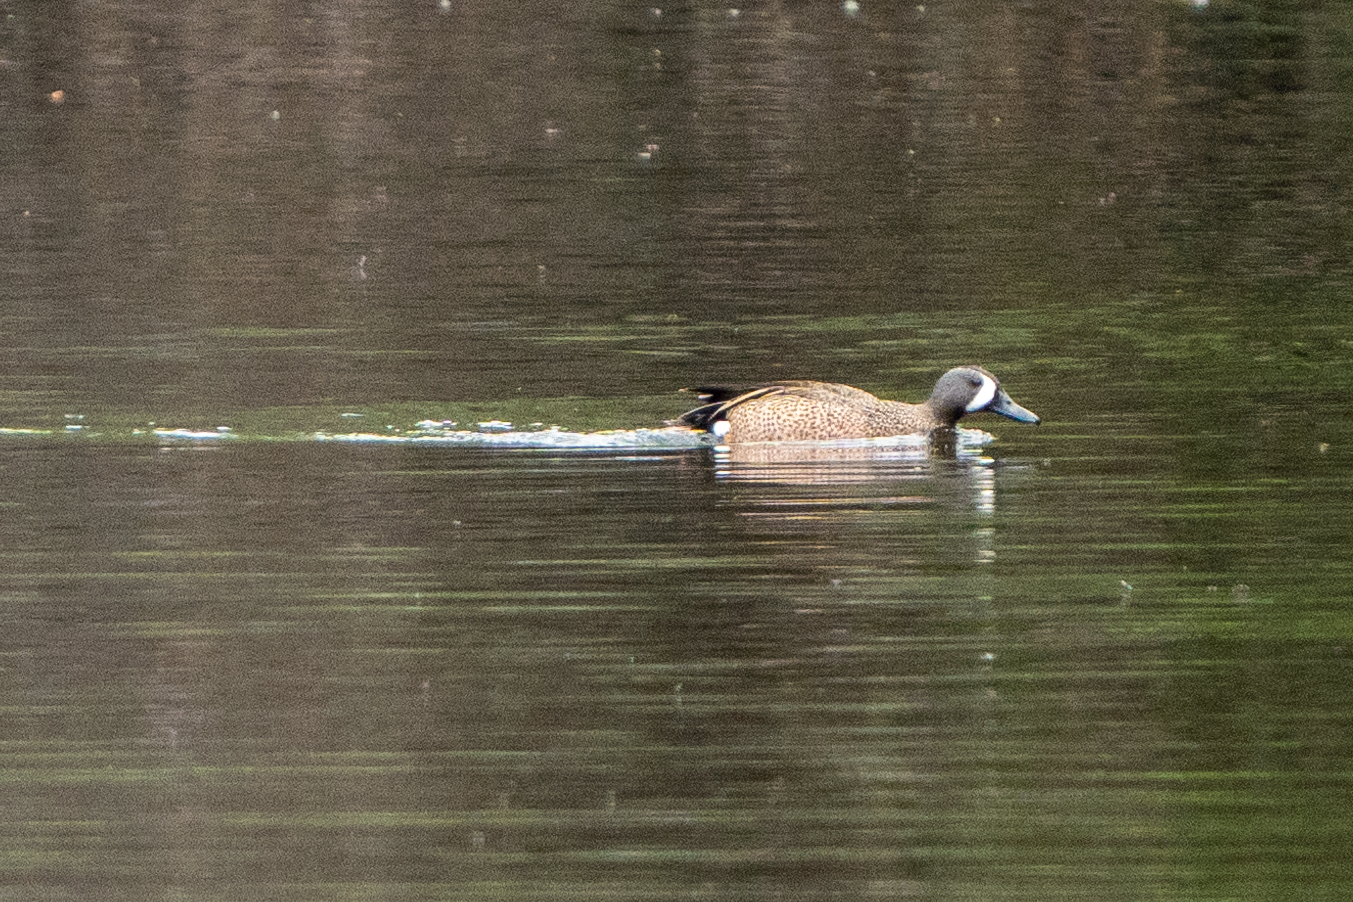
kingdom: Animalia
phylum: Chordata
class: Aves
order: Anseriformes
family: Anatidae
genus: Spatula
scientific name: Spatula discors
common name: Blue-winged teal
